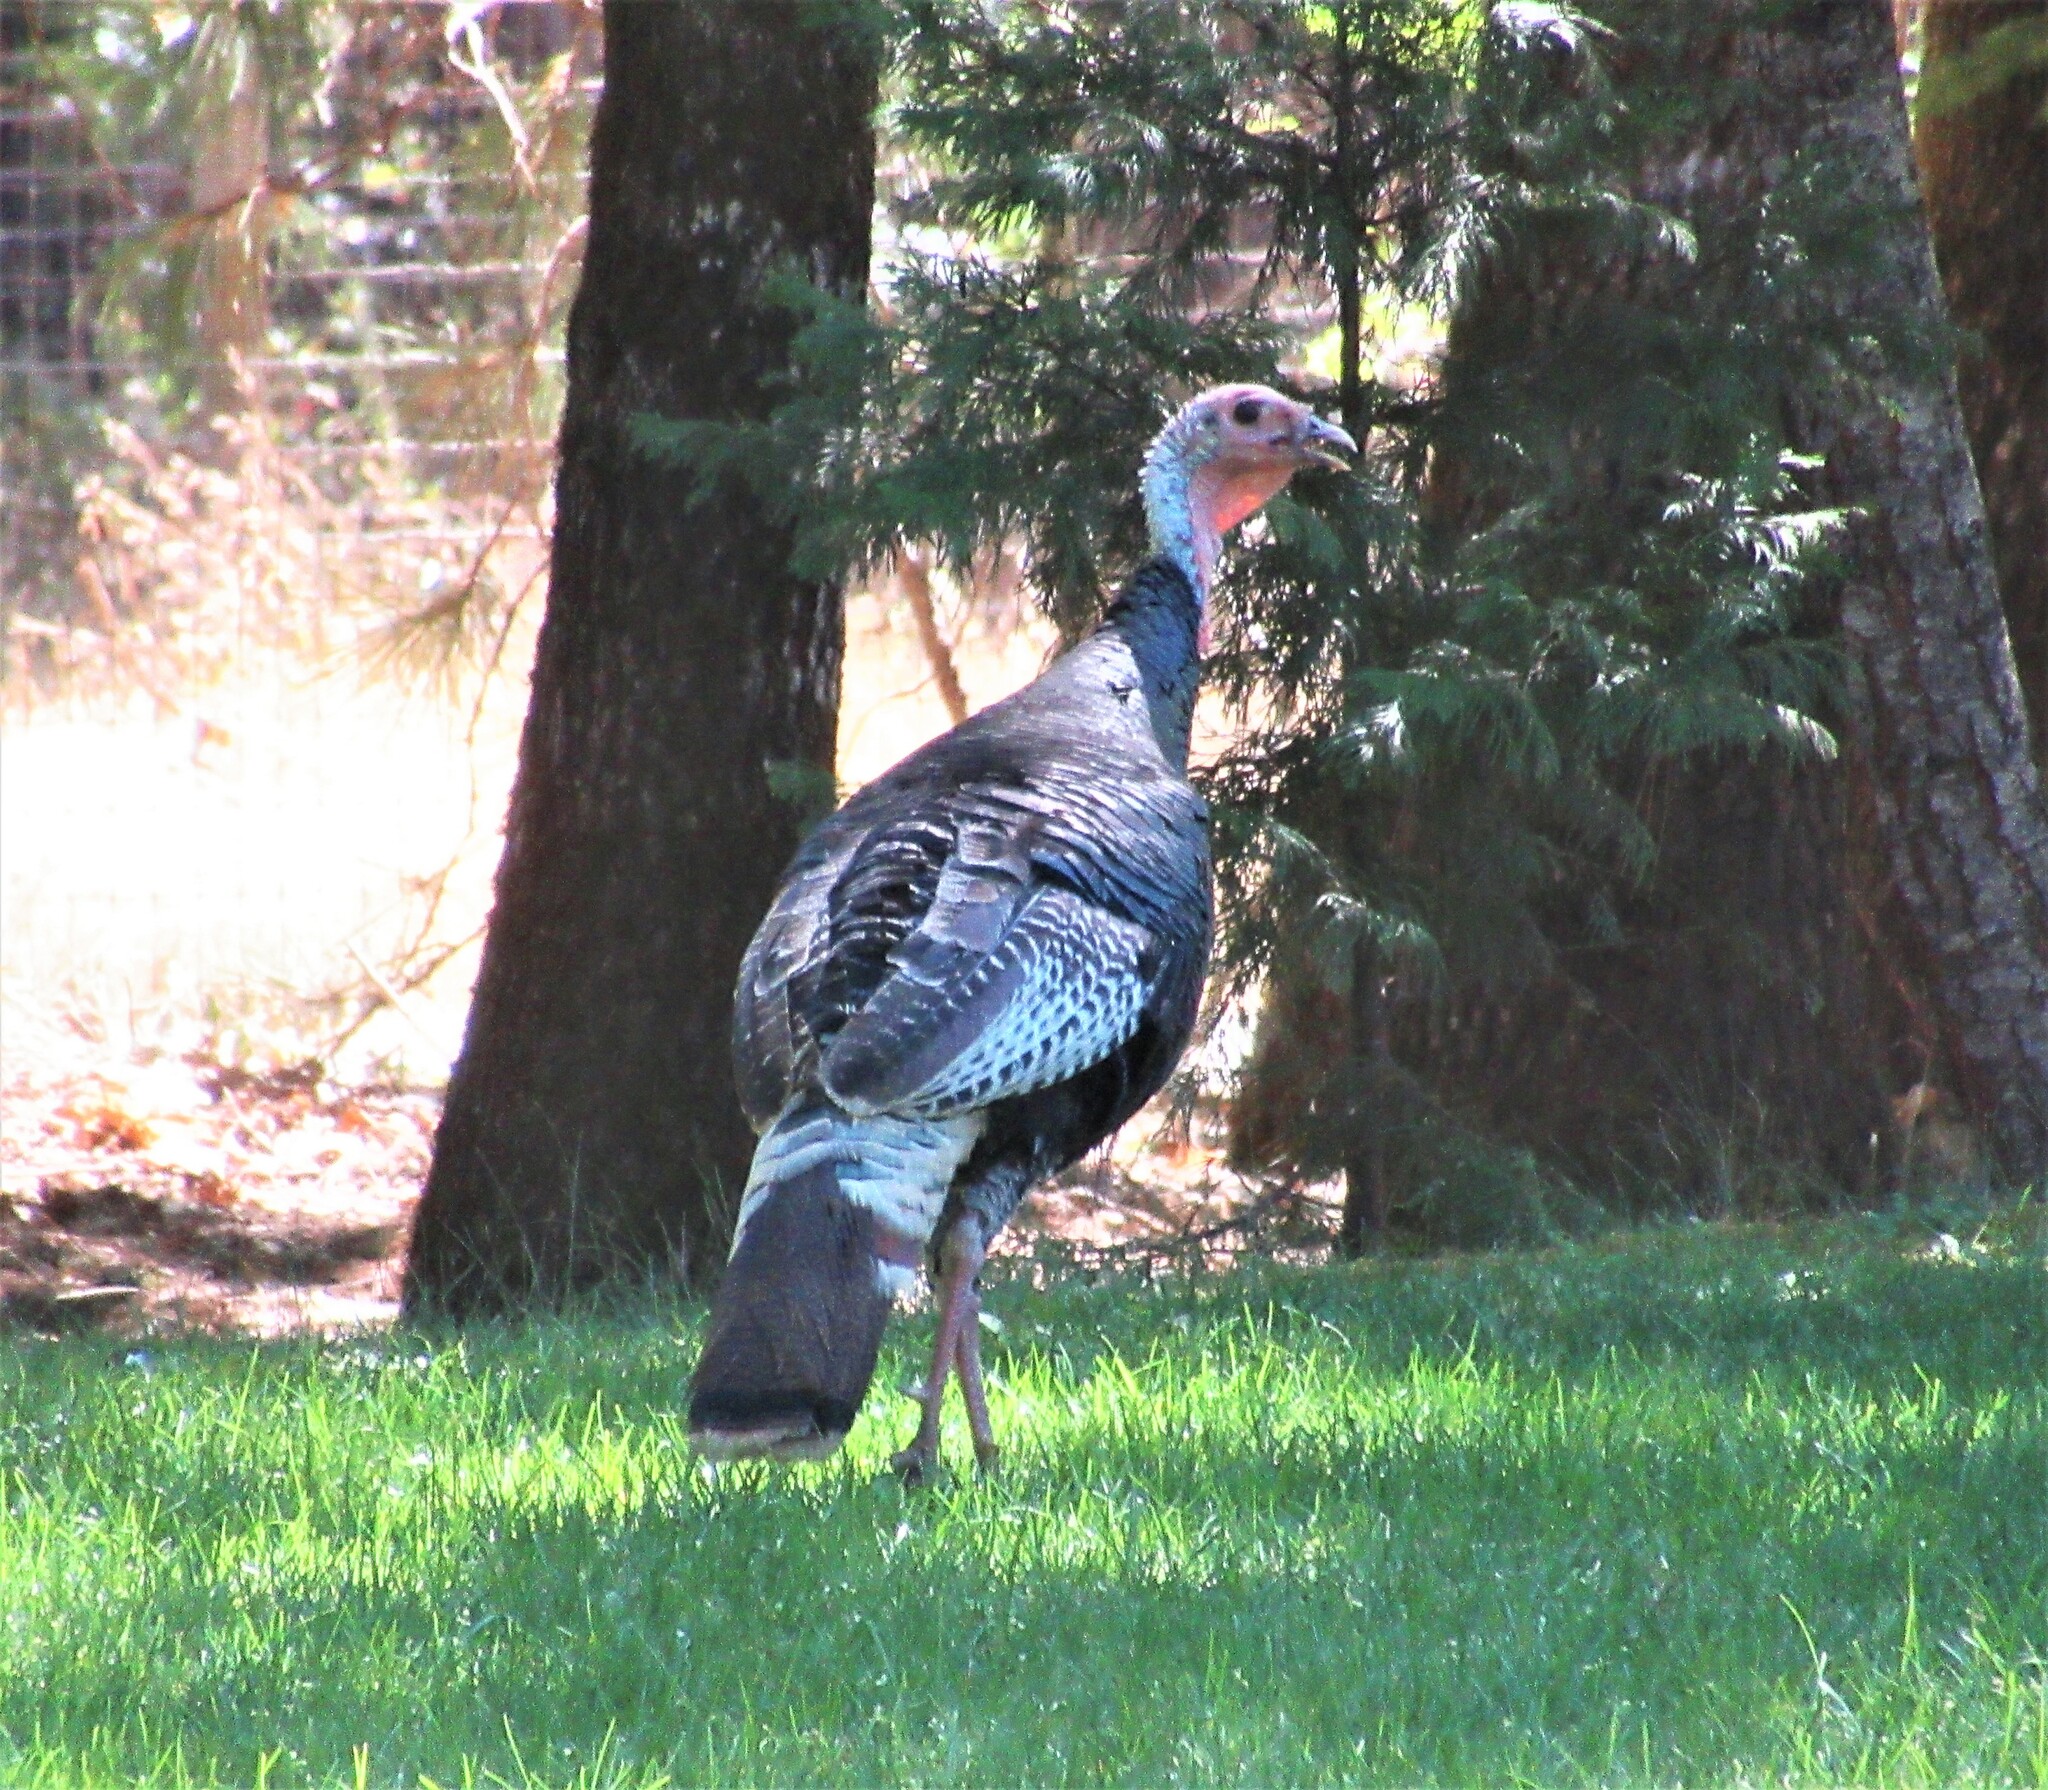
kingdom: Animalia
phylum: Chordata
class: Aves
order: Galliformes
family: Phasianidae
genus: Meleagris
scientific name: Meleagris gallopavo
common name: Wild turkey
